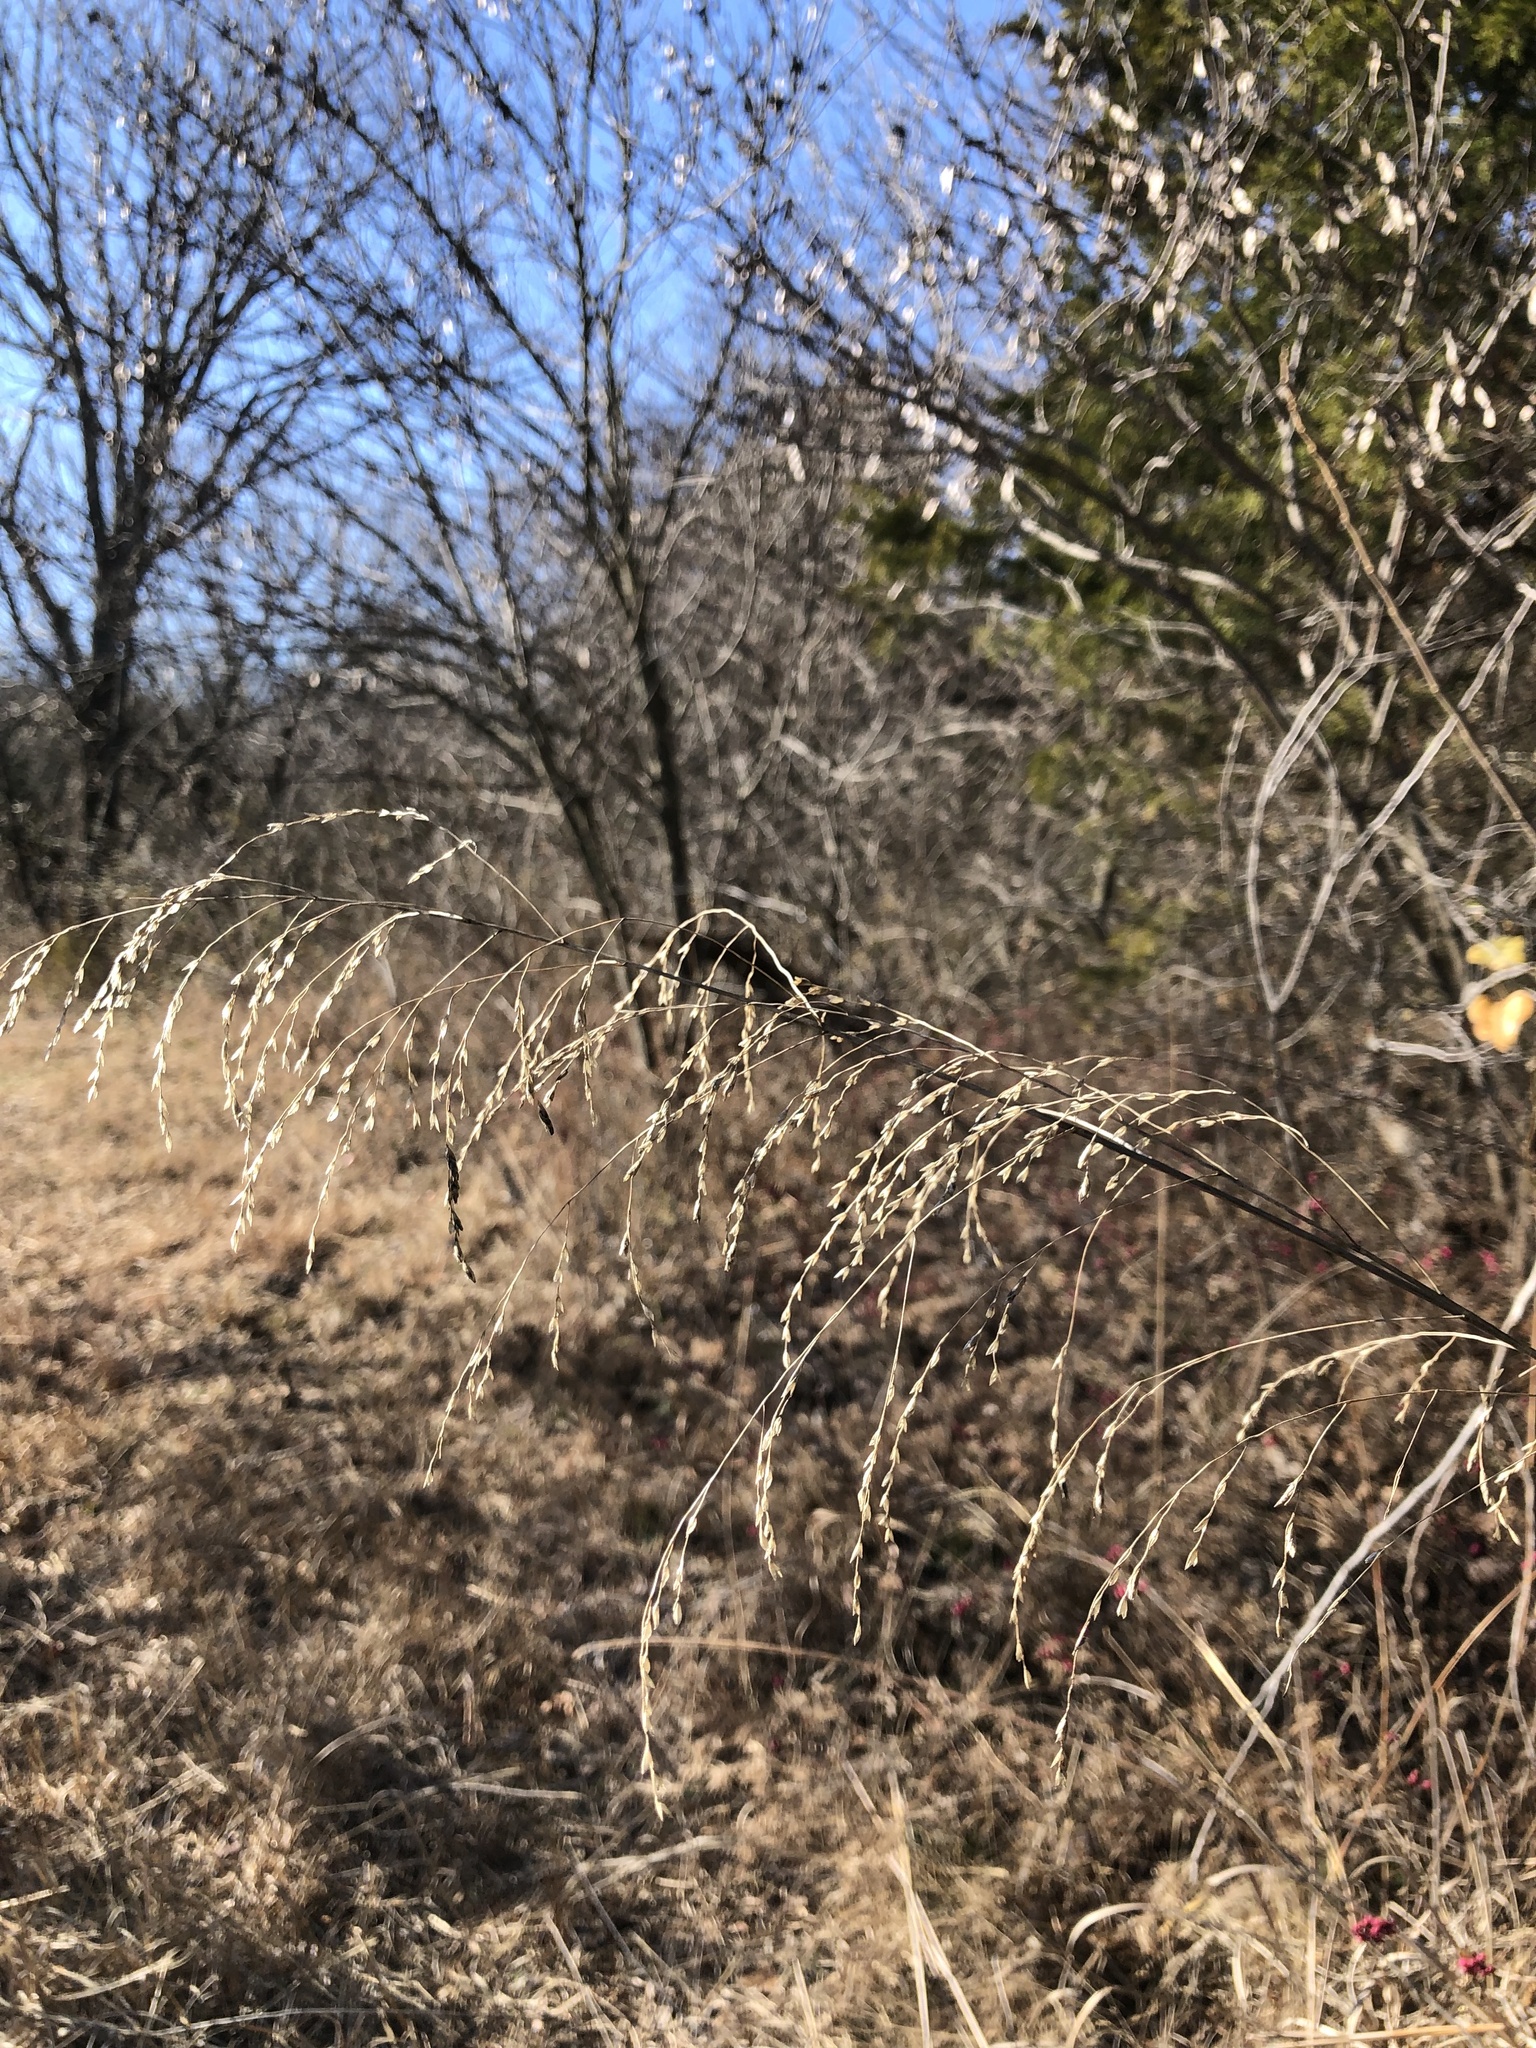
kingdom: Plantae
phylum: Tracheophyta
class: Liliopsida
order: Poales
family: Poaceae
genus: Tridens
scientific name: Tridens flavus
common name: Purpletop
